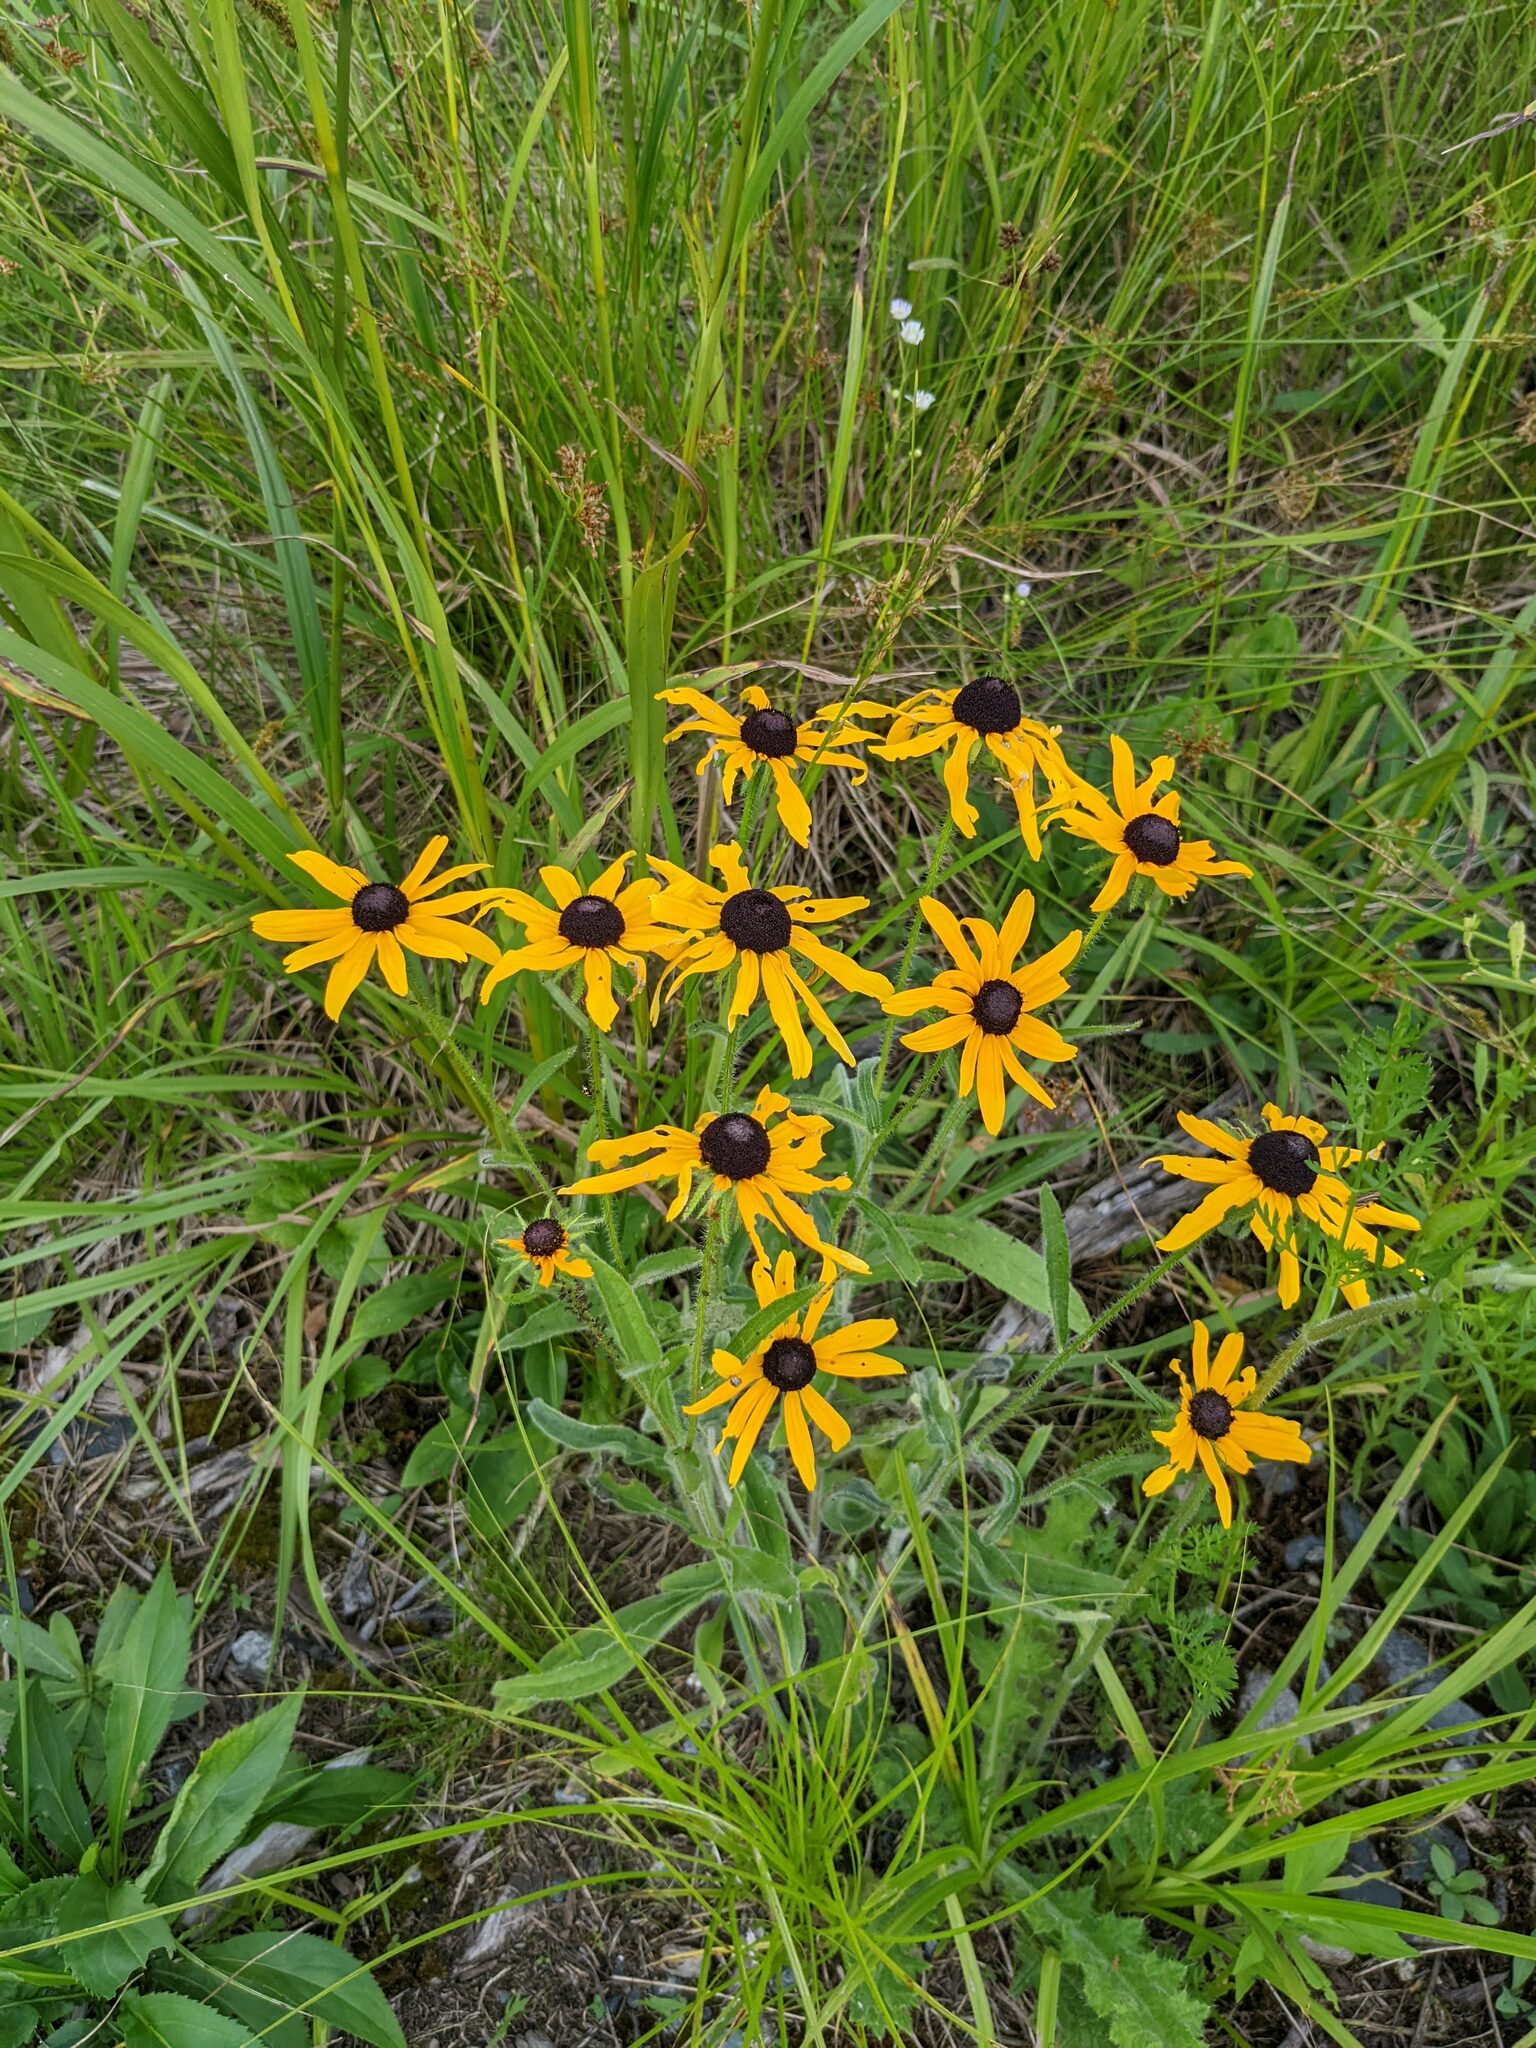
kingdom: Plantae
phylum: Tracheophyta
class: Magnoliopsida
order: Asterales
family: Asteraceae
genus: Rudbeckia
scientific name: Rudbeckia hirta
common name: Black-eyed-susan
